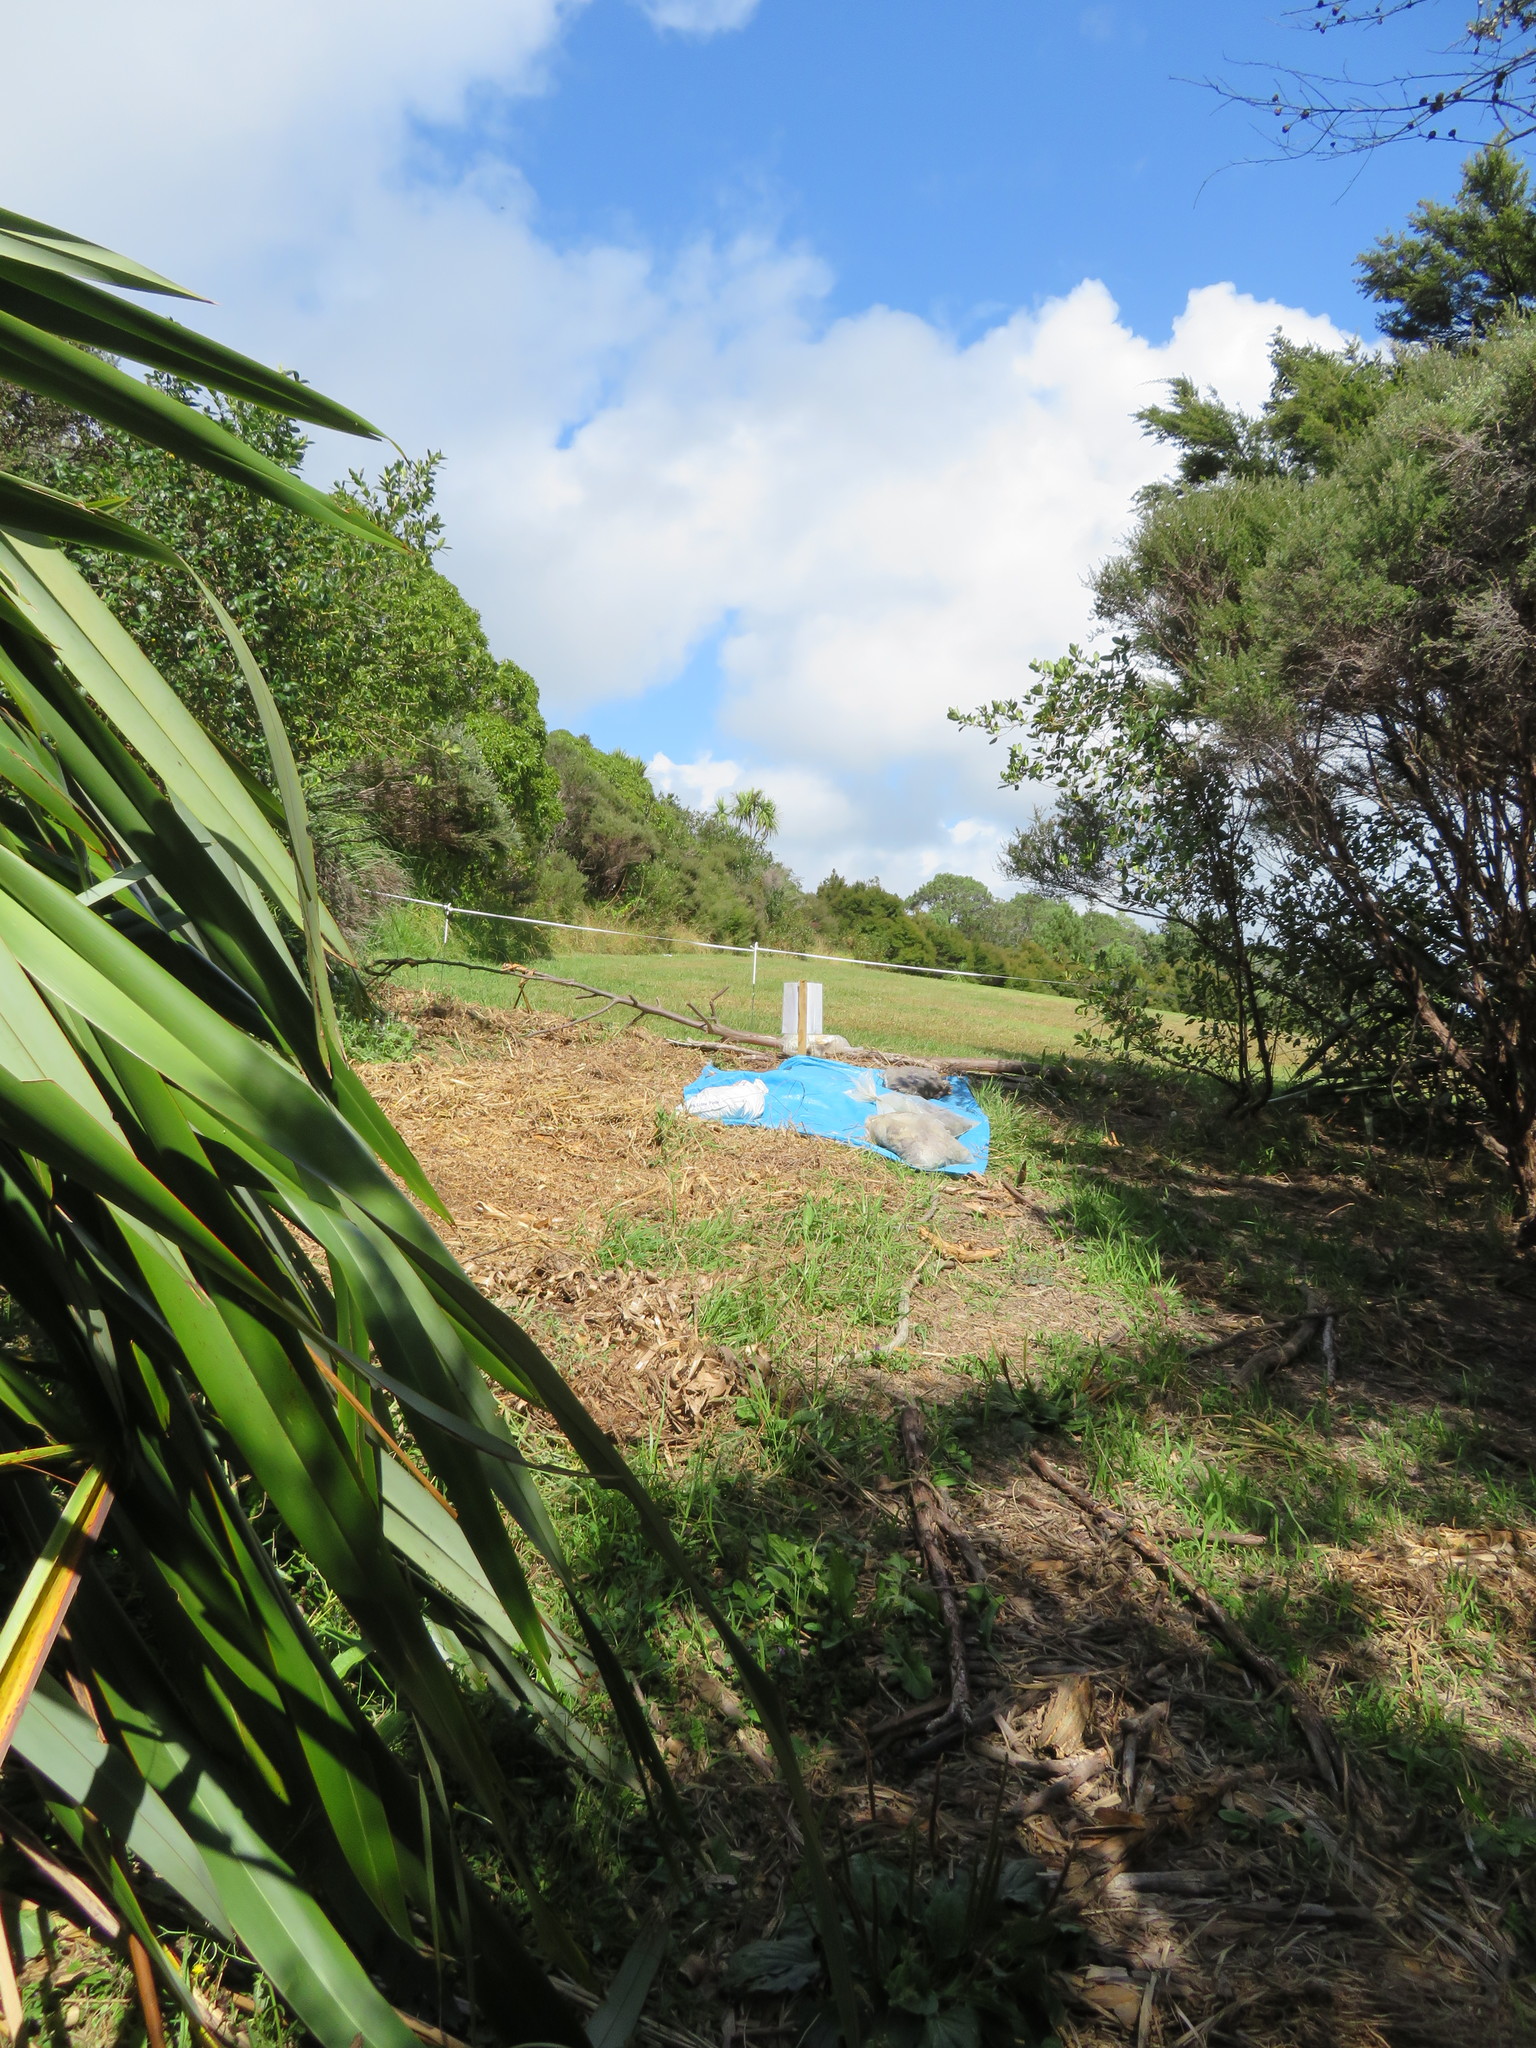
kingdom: Plantae
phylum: Tracheophyta
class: Magnoliopsida
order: Myrtales
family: Myrtaceae
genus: Leptospermum
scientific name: Leptospermum scoparium
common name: Broom tea-tree
